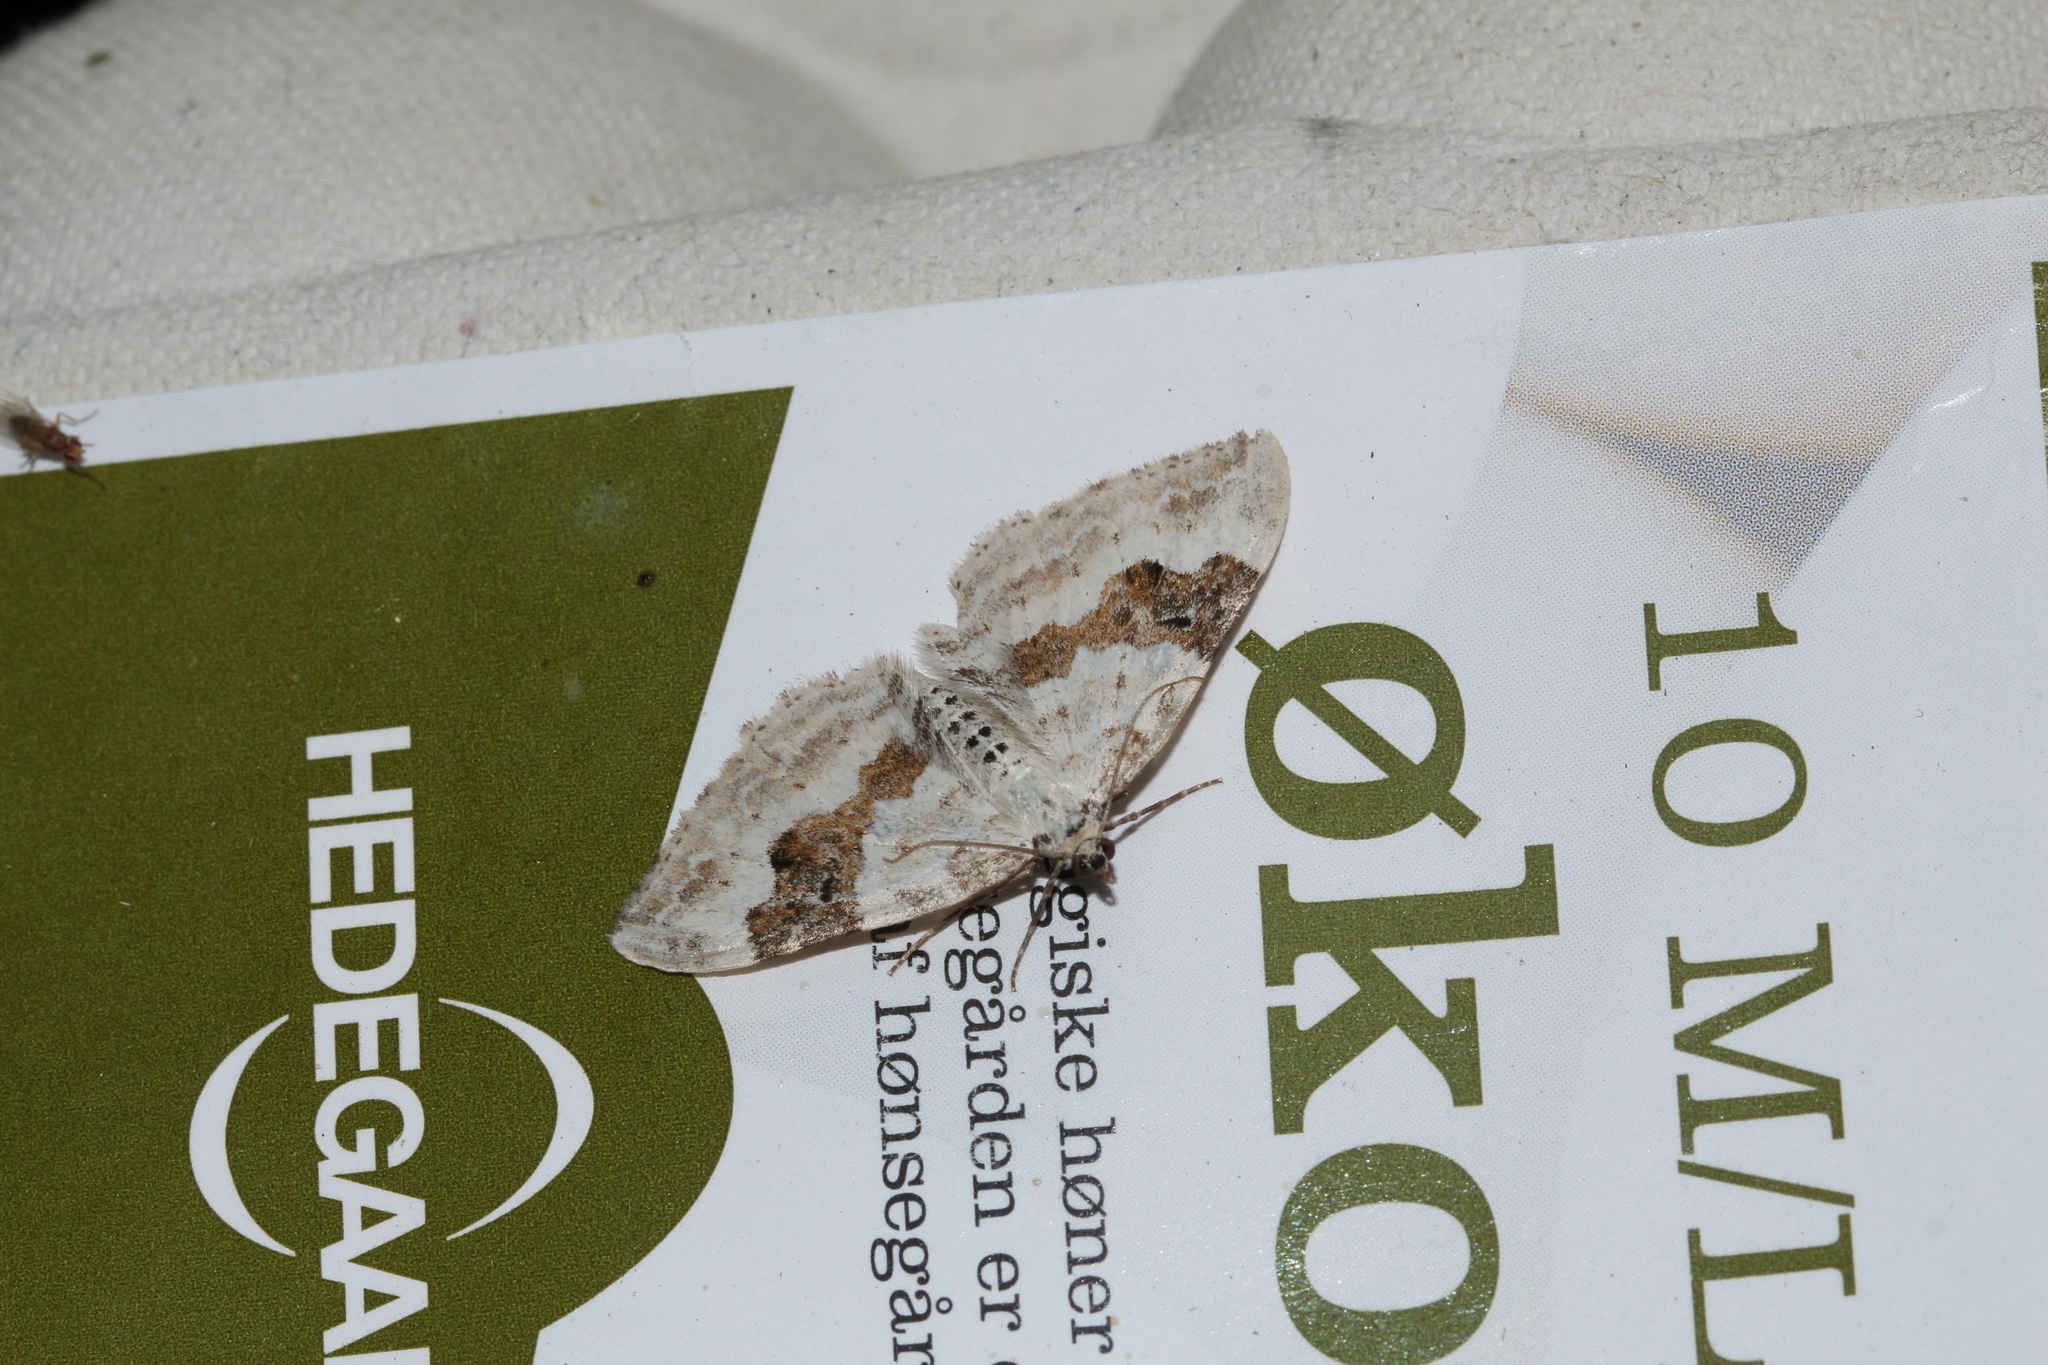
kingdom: Animalia
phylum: Arthropoda
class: Insecta
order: Lepidoptera
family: Geometridae
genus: Xanthorhoe
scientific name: Xanthorhoe montanata
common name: Silver-ground carpet
